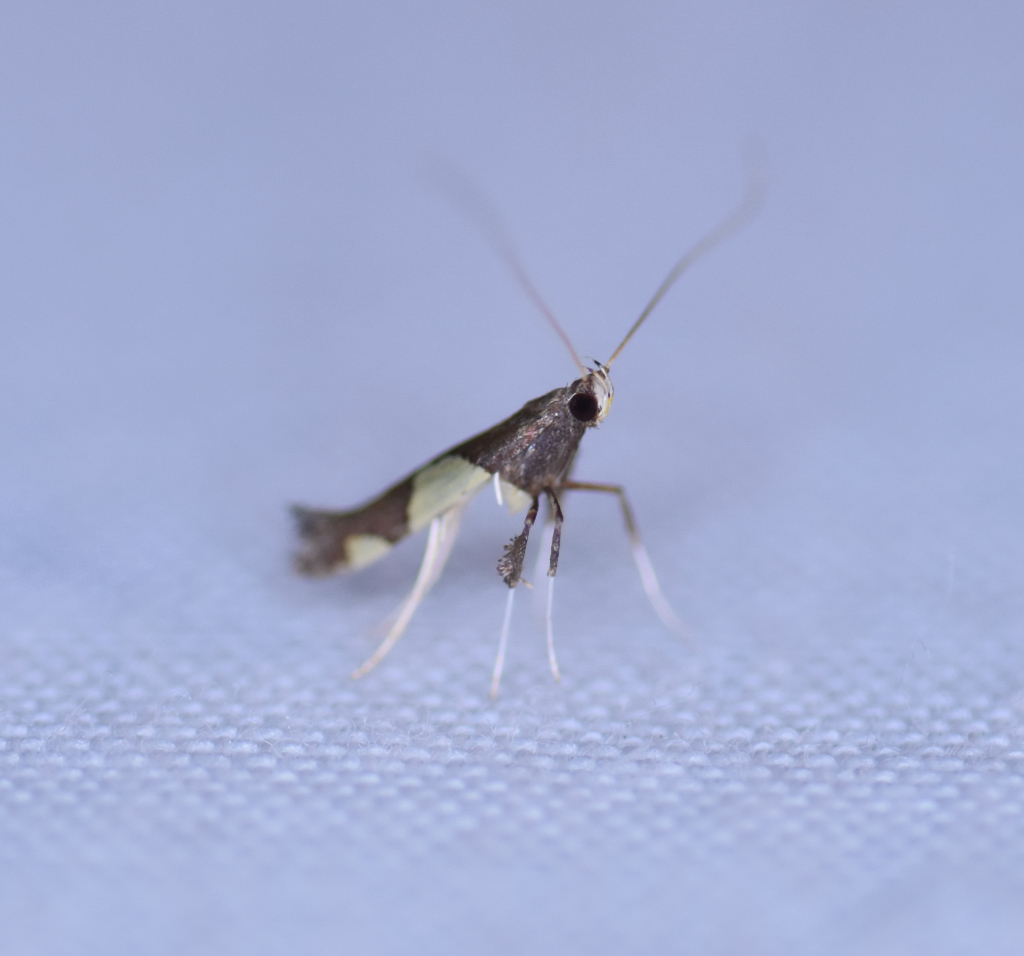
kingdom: Animalia
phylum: Arthropoda
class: Insecta
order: Lepidoptera
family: Gracillariidae
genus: Caloptilia
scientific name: Caloptilia bimaculatella
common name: Maple caloptilia moth
